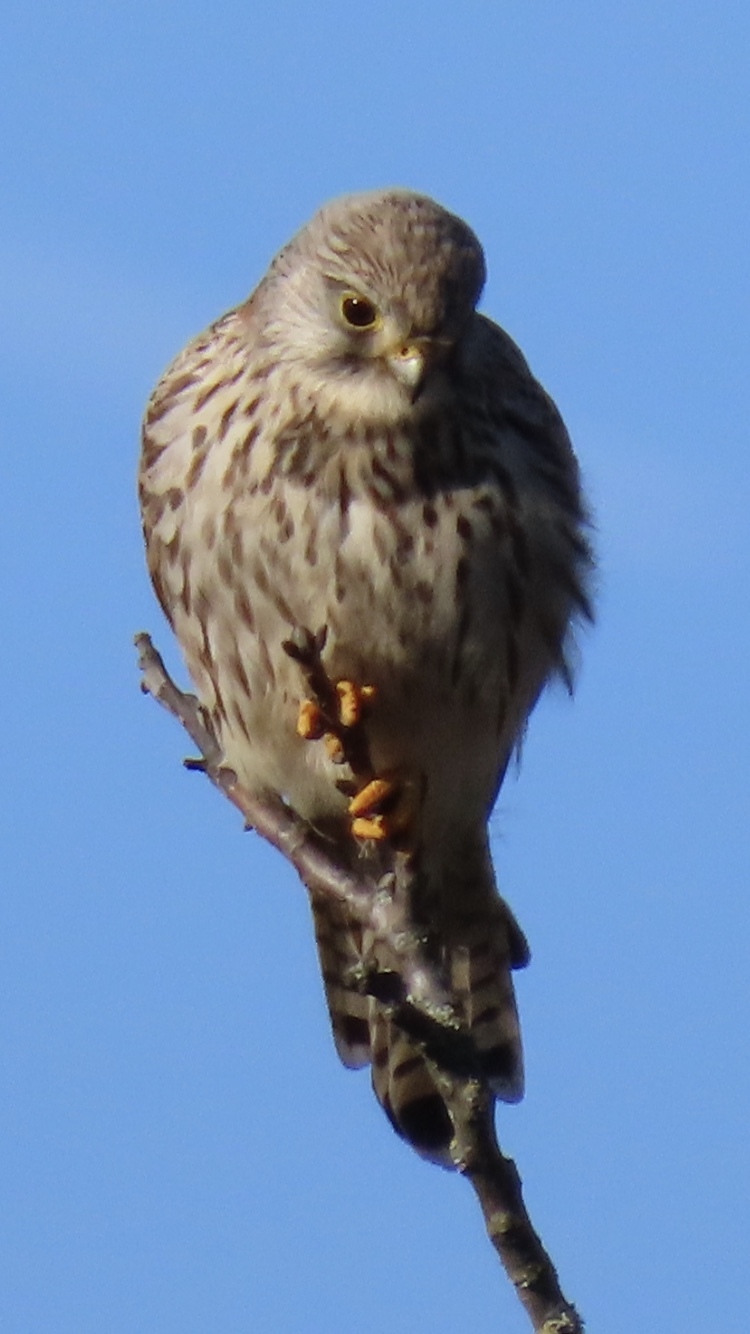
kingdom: Animalia
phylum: Chordata
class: Aves
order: Falconiformes
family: Falconidae
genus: Falco
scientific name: Falco tinnunculus
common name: Common kestrel
